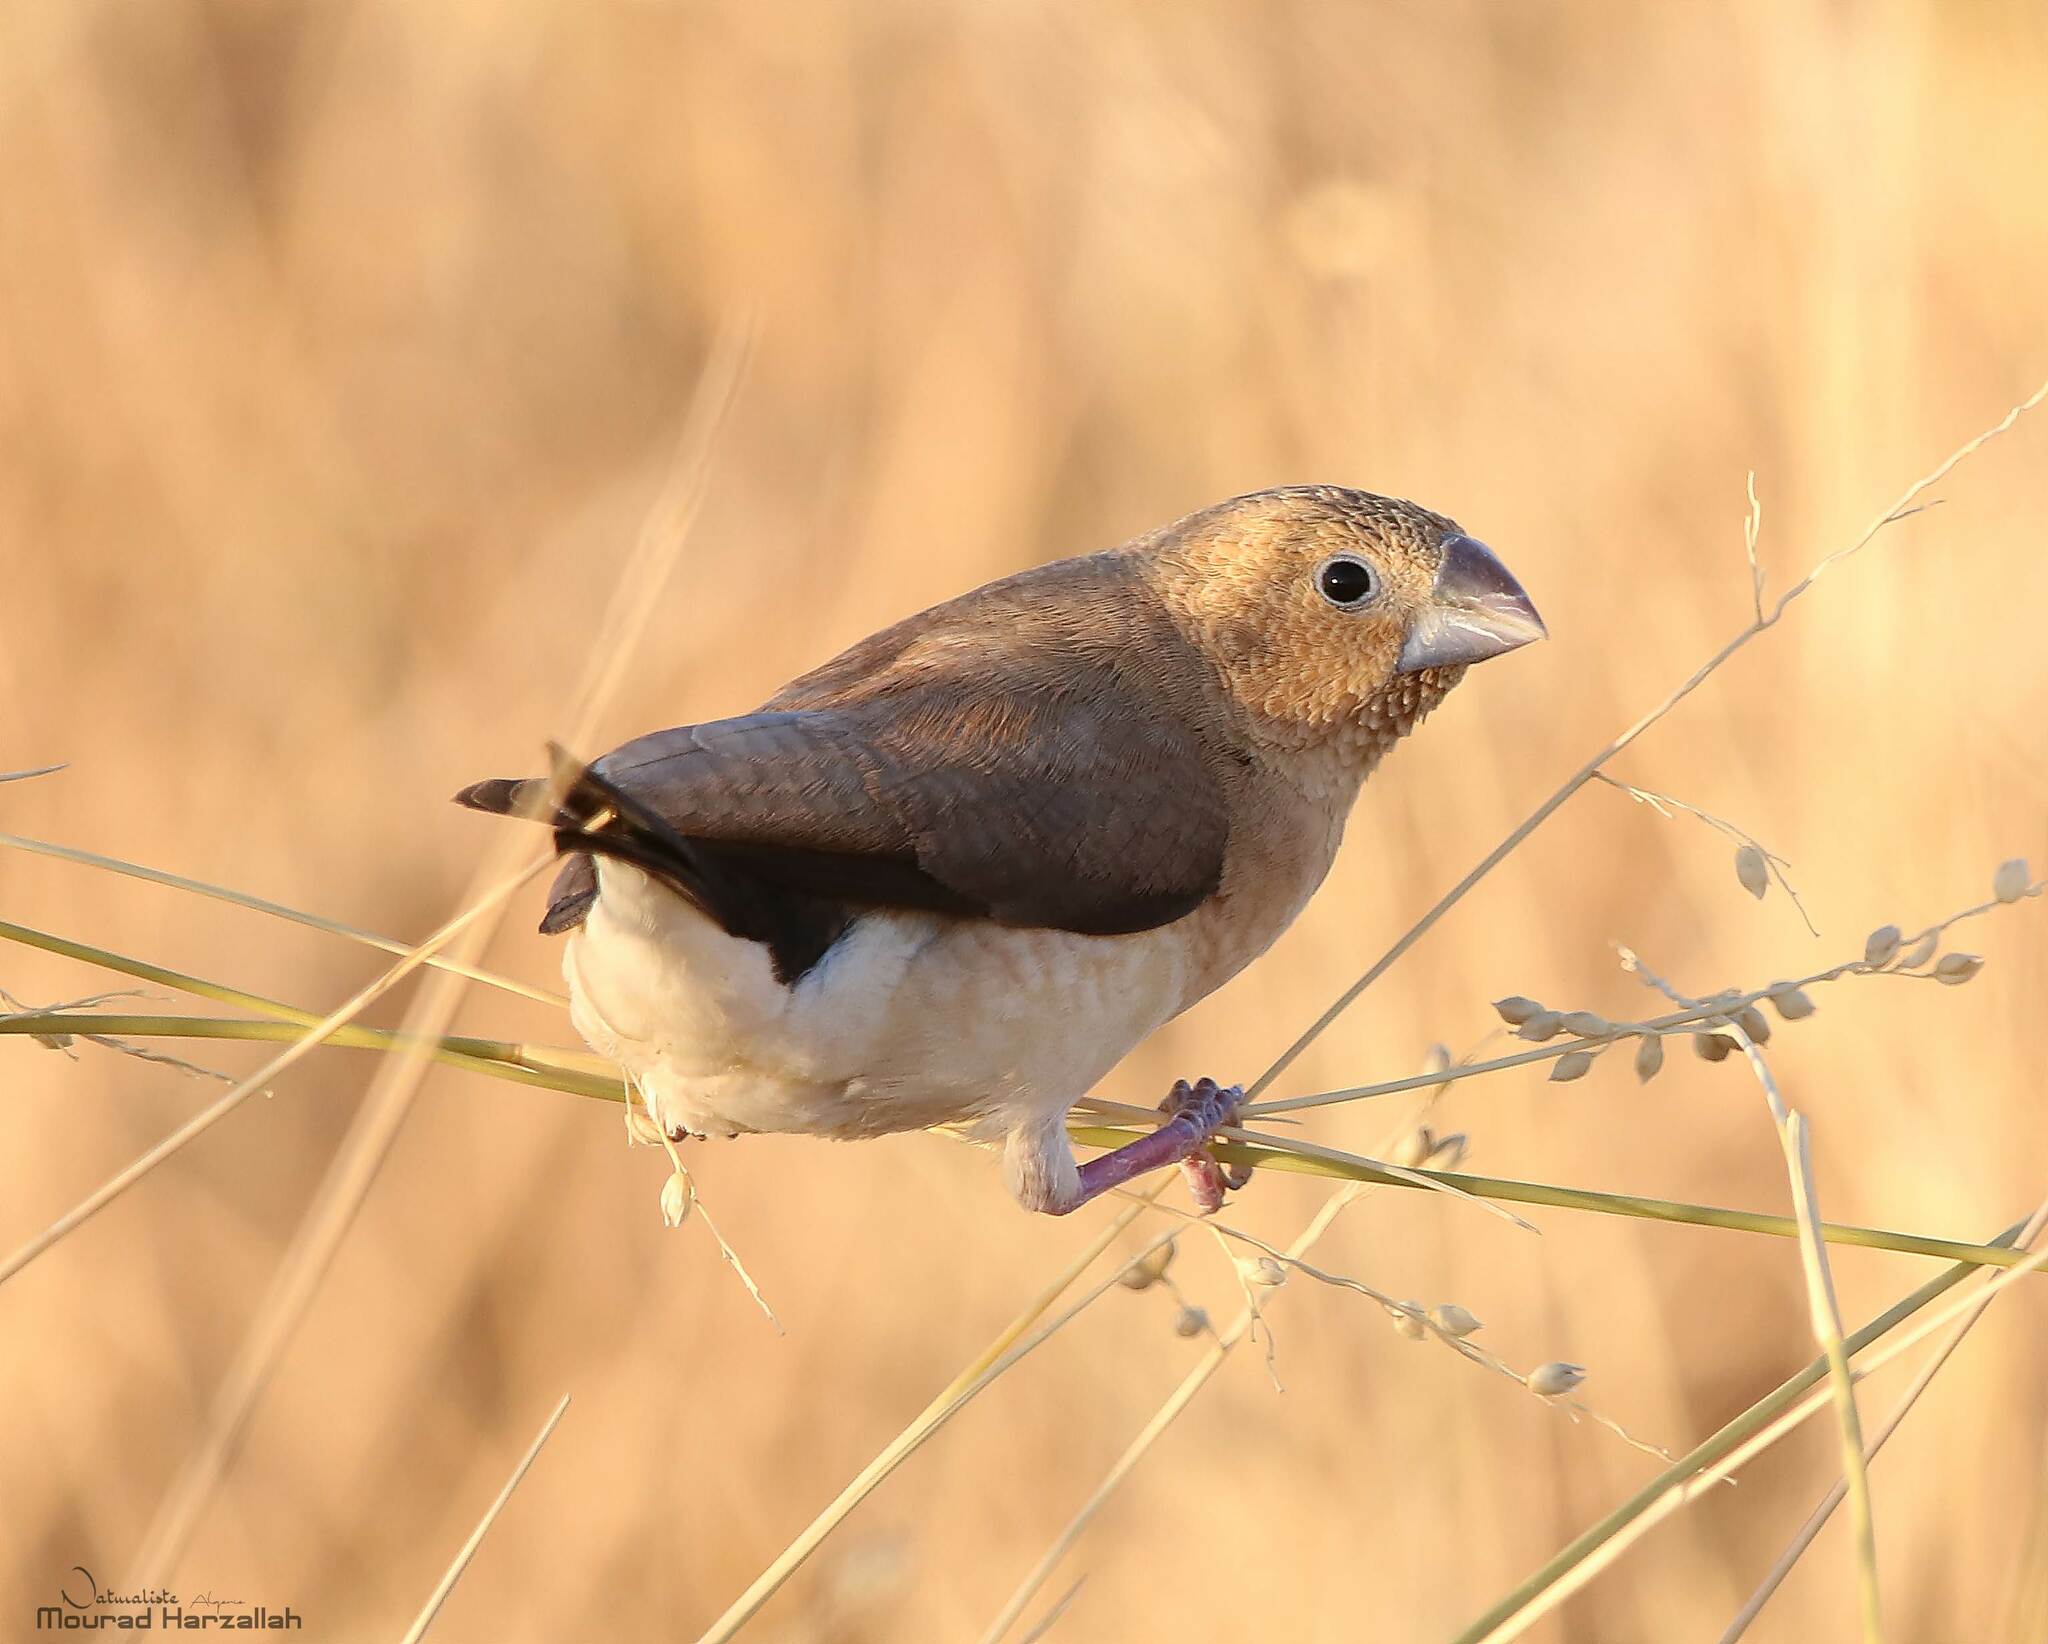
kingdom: Animalia
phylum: Chordata
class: Aves
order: Passeriformes
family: Estrildidae
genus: Euodice
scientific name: Euodice cantans
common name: African silverbill
